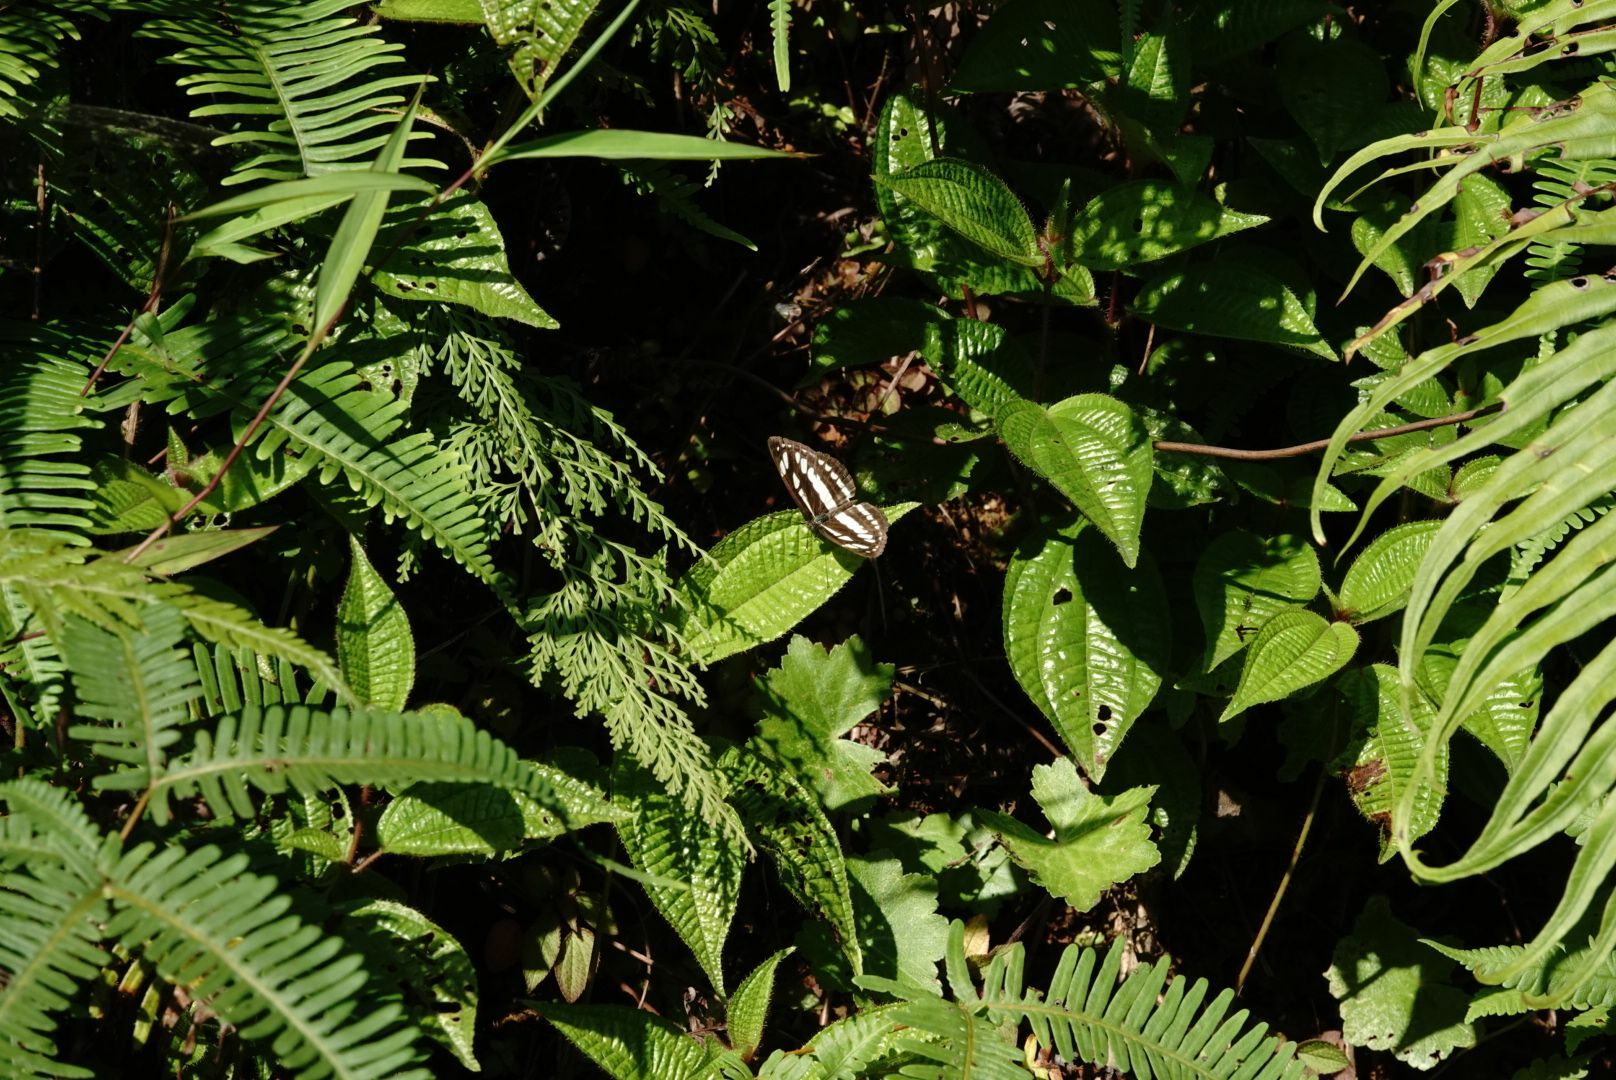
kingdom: Animalia
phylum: Arthropoda
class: Insecta
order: Lepidoptera
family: Nymphalidae
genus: Neptis
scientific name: Neptis hylas
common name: Common sailer
